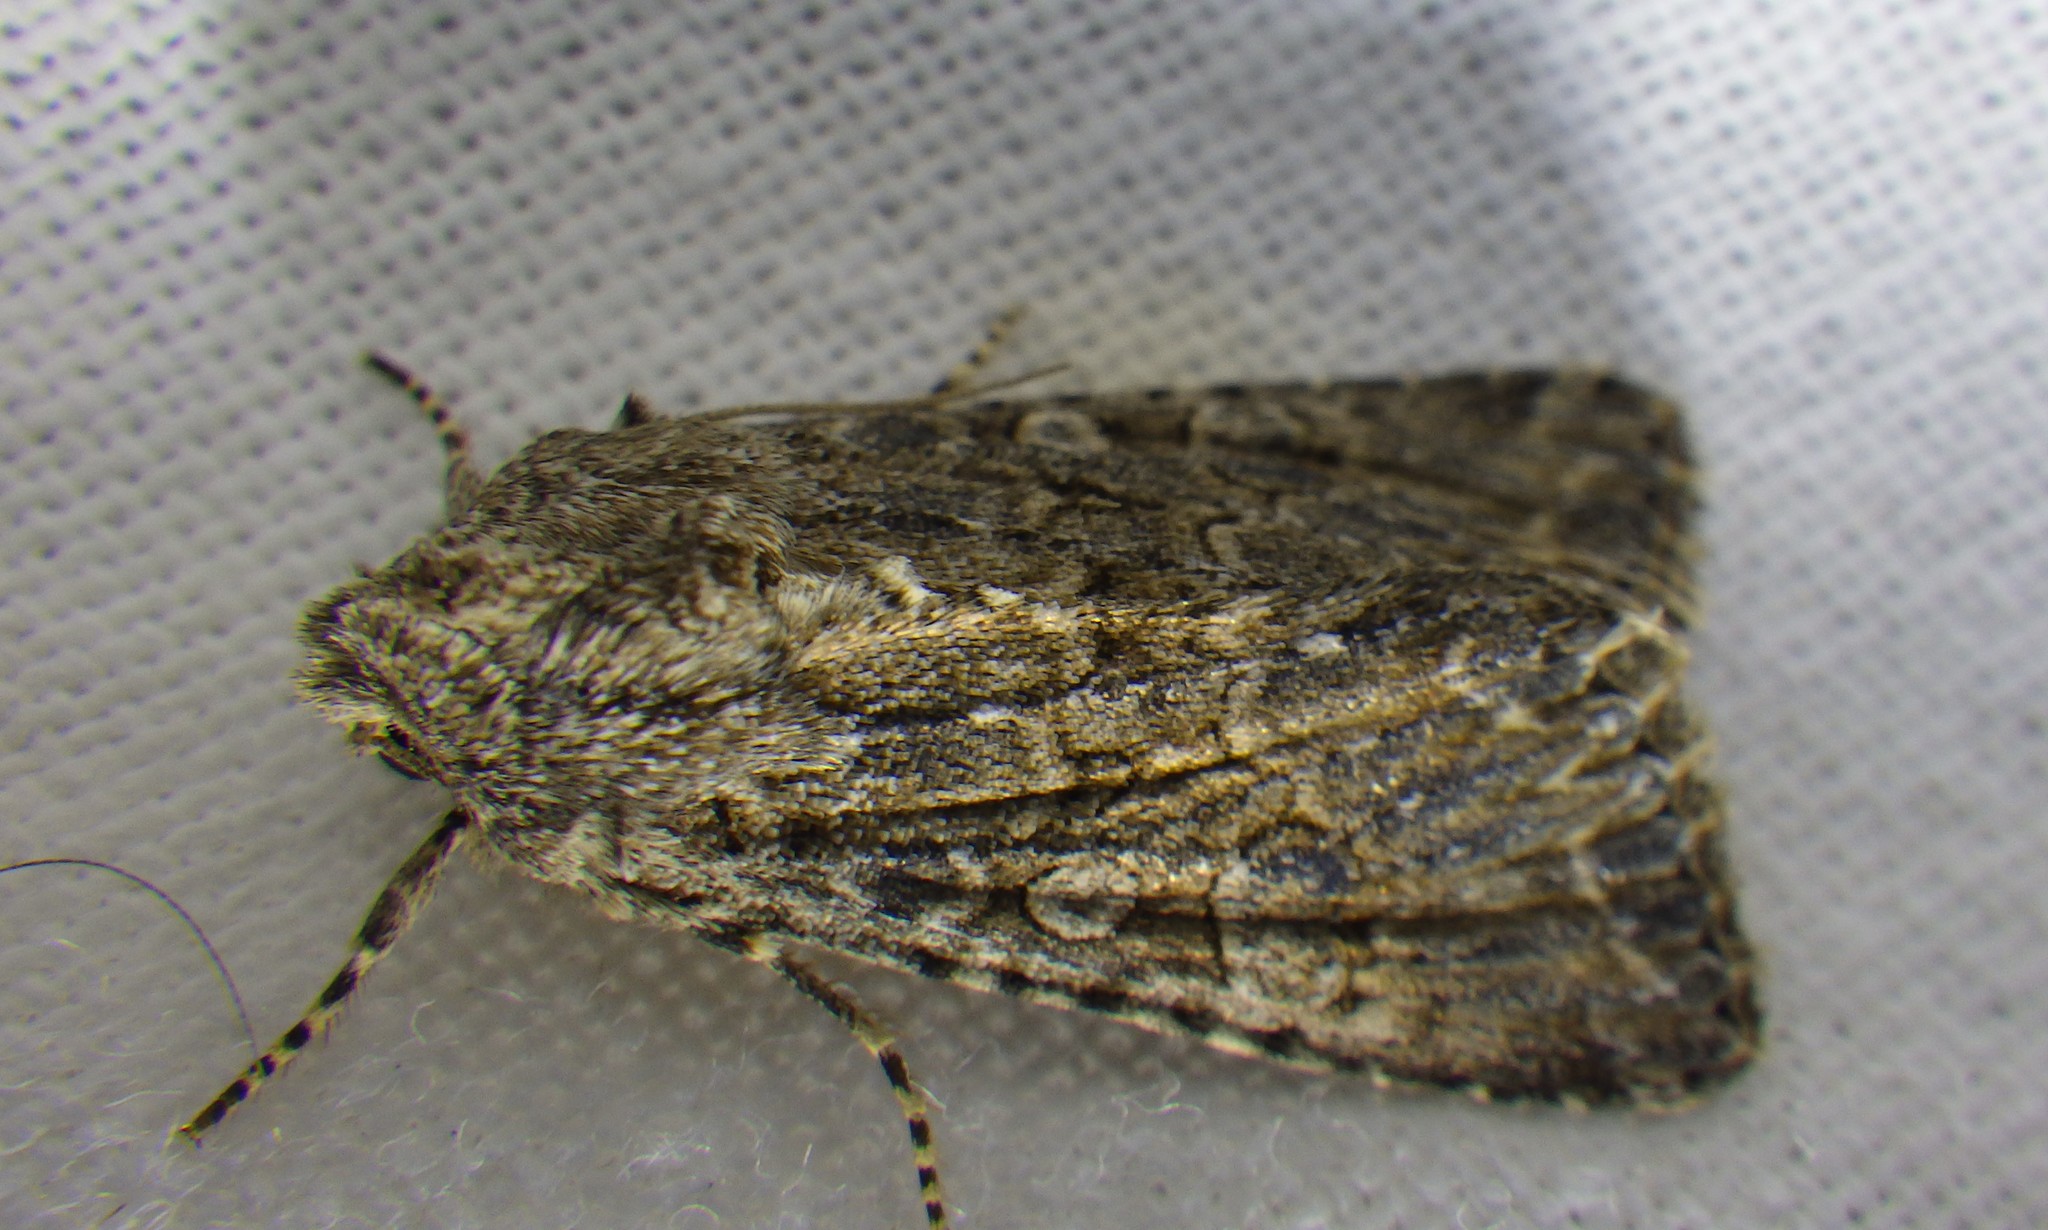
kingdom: Animalia
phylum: Arthropoda
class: Insecta
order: Lepidoptera
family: Noctuidae
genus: Anarta
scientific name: Anarta trifolii
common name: Clover cutworm moth
